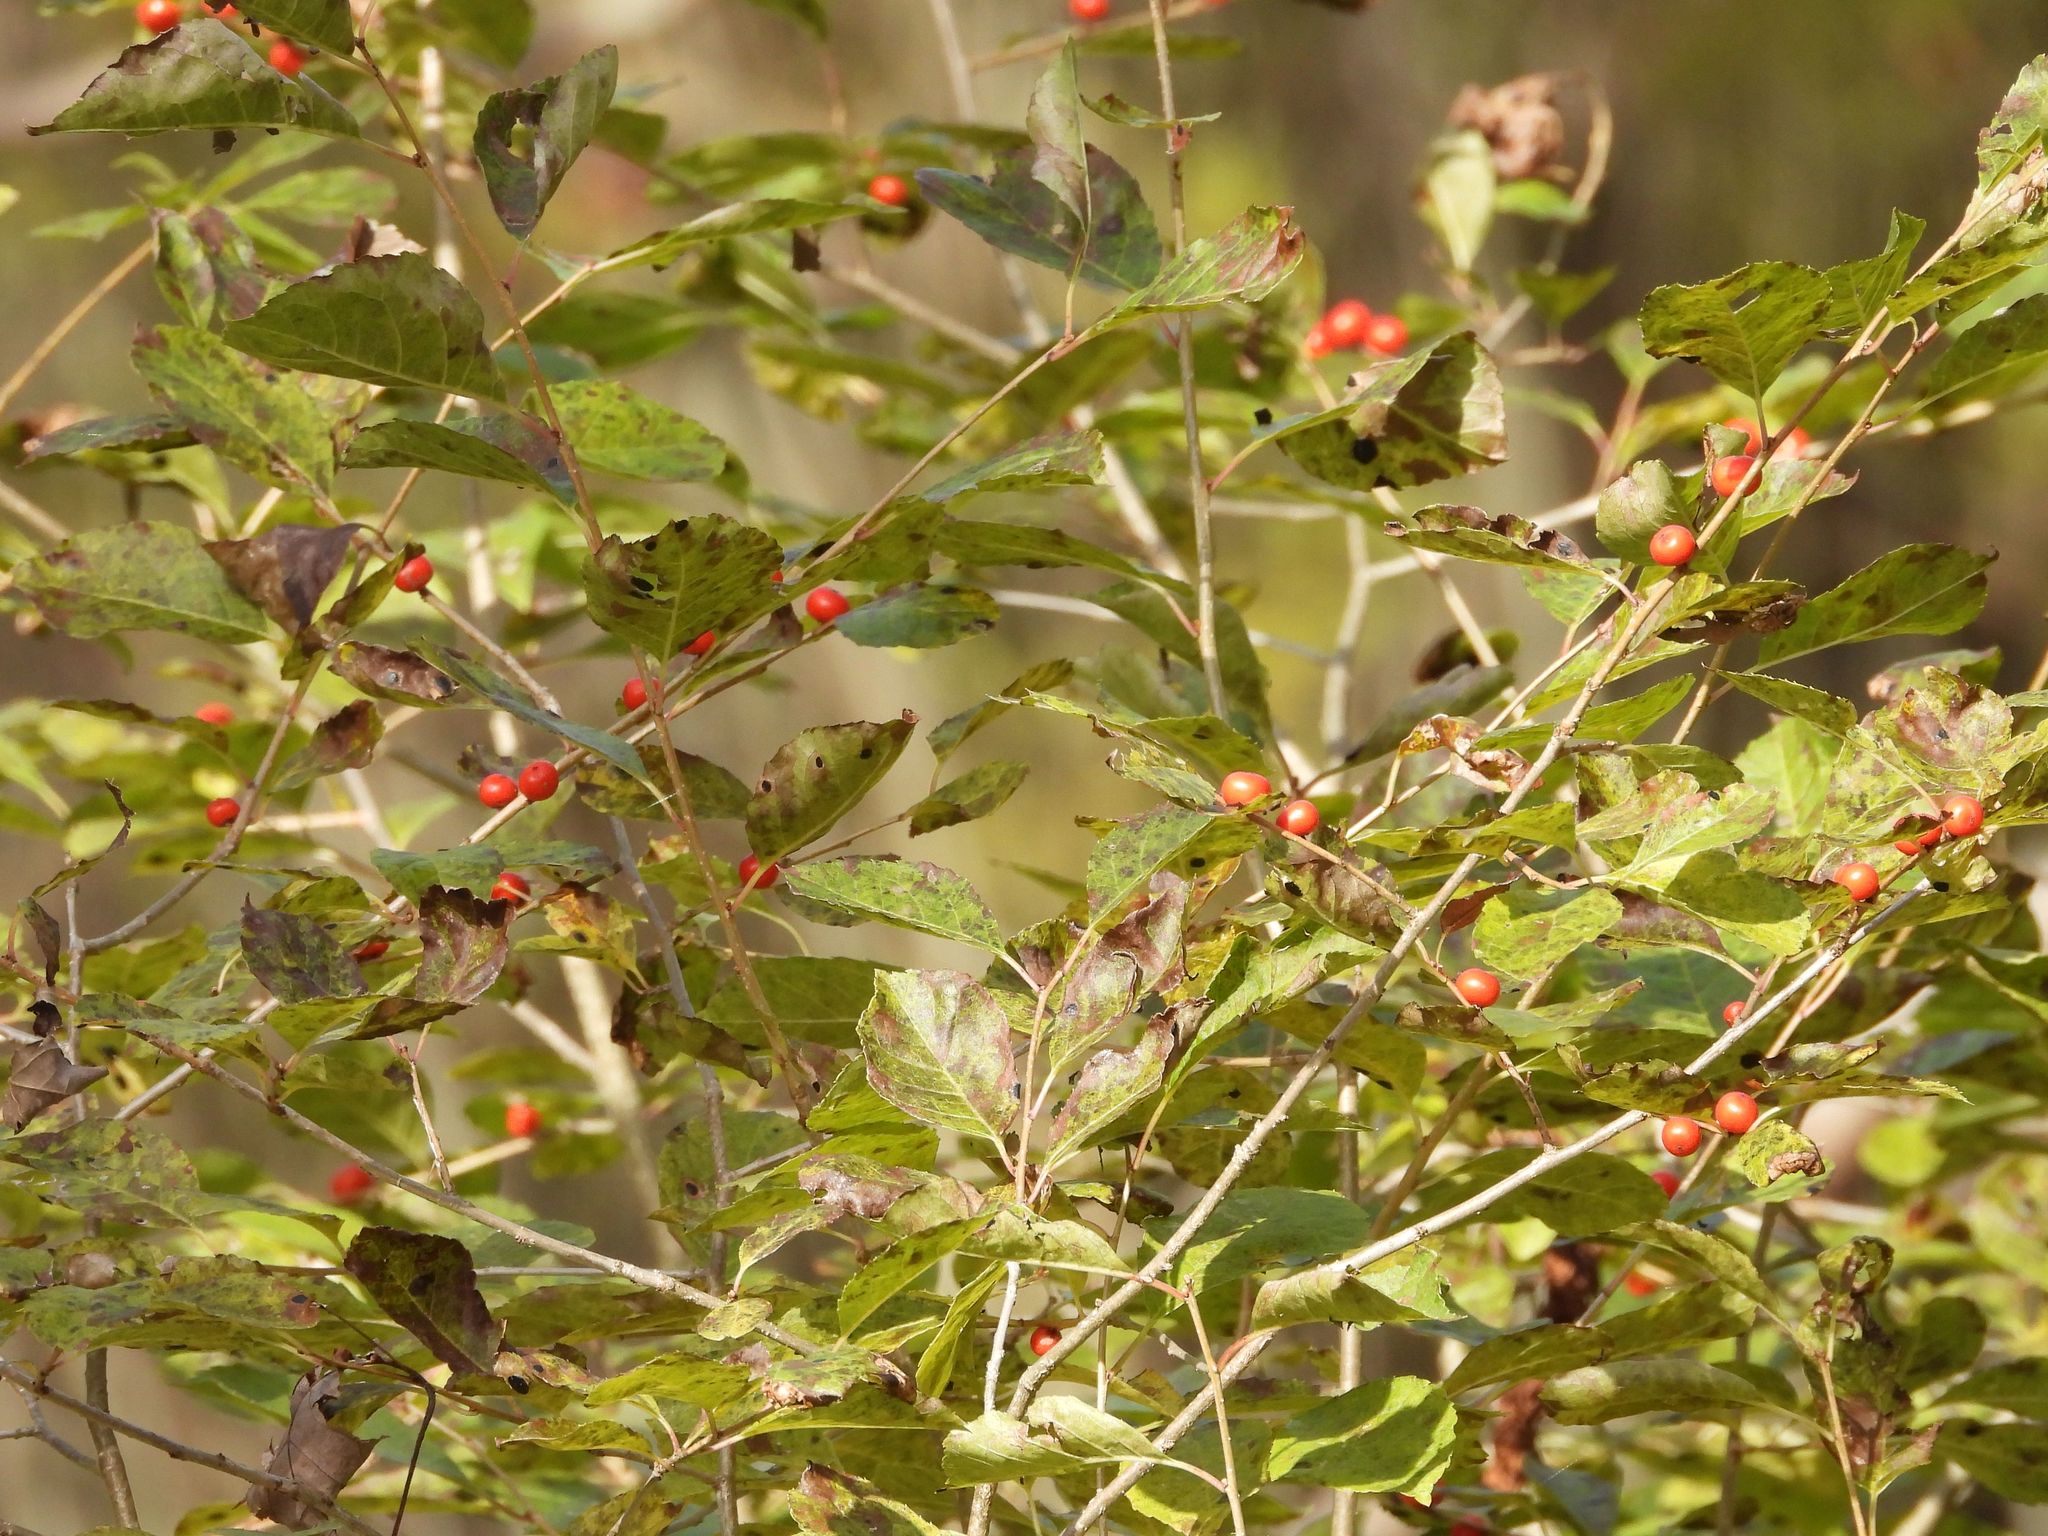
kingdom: Plantae
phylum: Tracheophyta
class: Magnoliopsida
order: Aquifoliales
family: Aquifoliaceae
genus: Ilex
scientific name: Ilex verticillata
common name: Virginia winterberry
